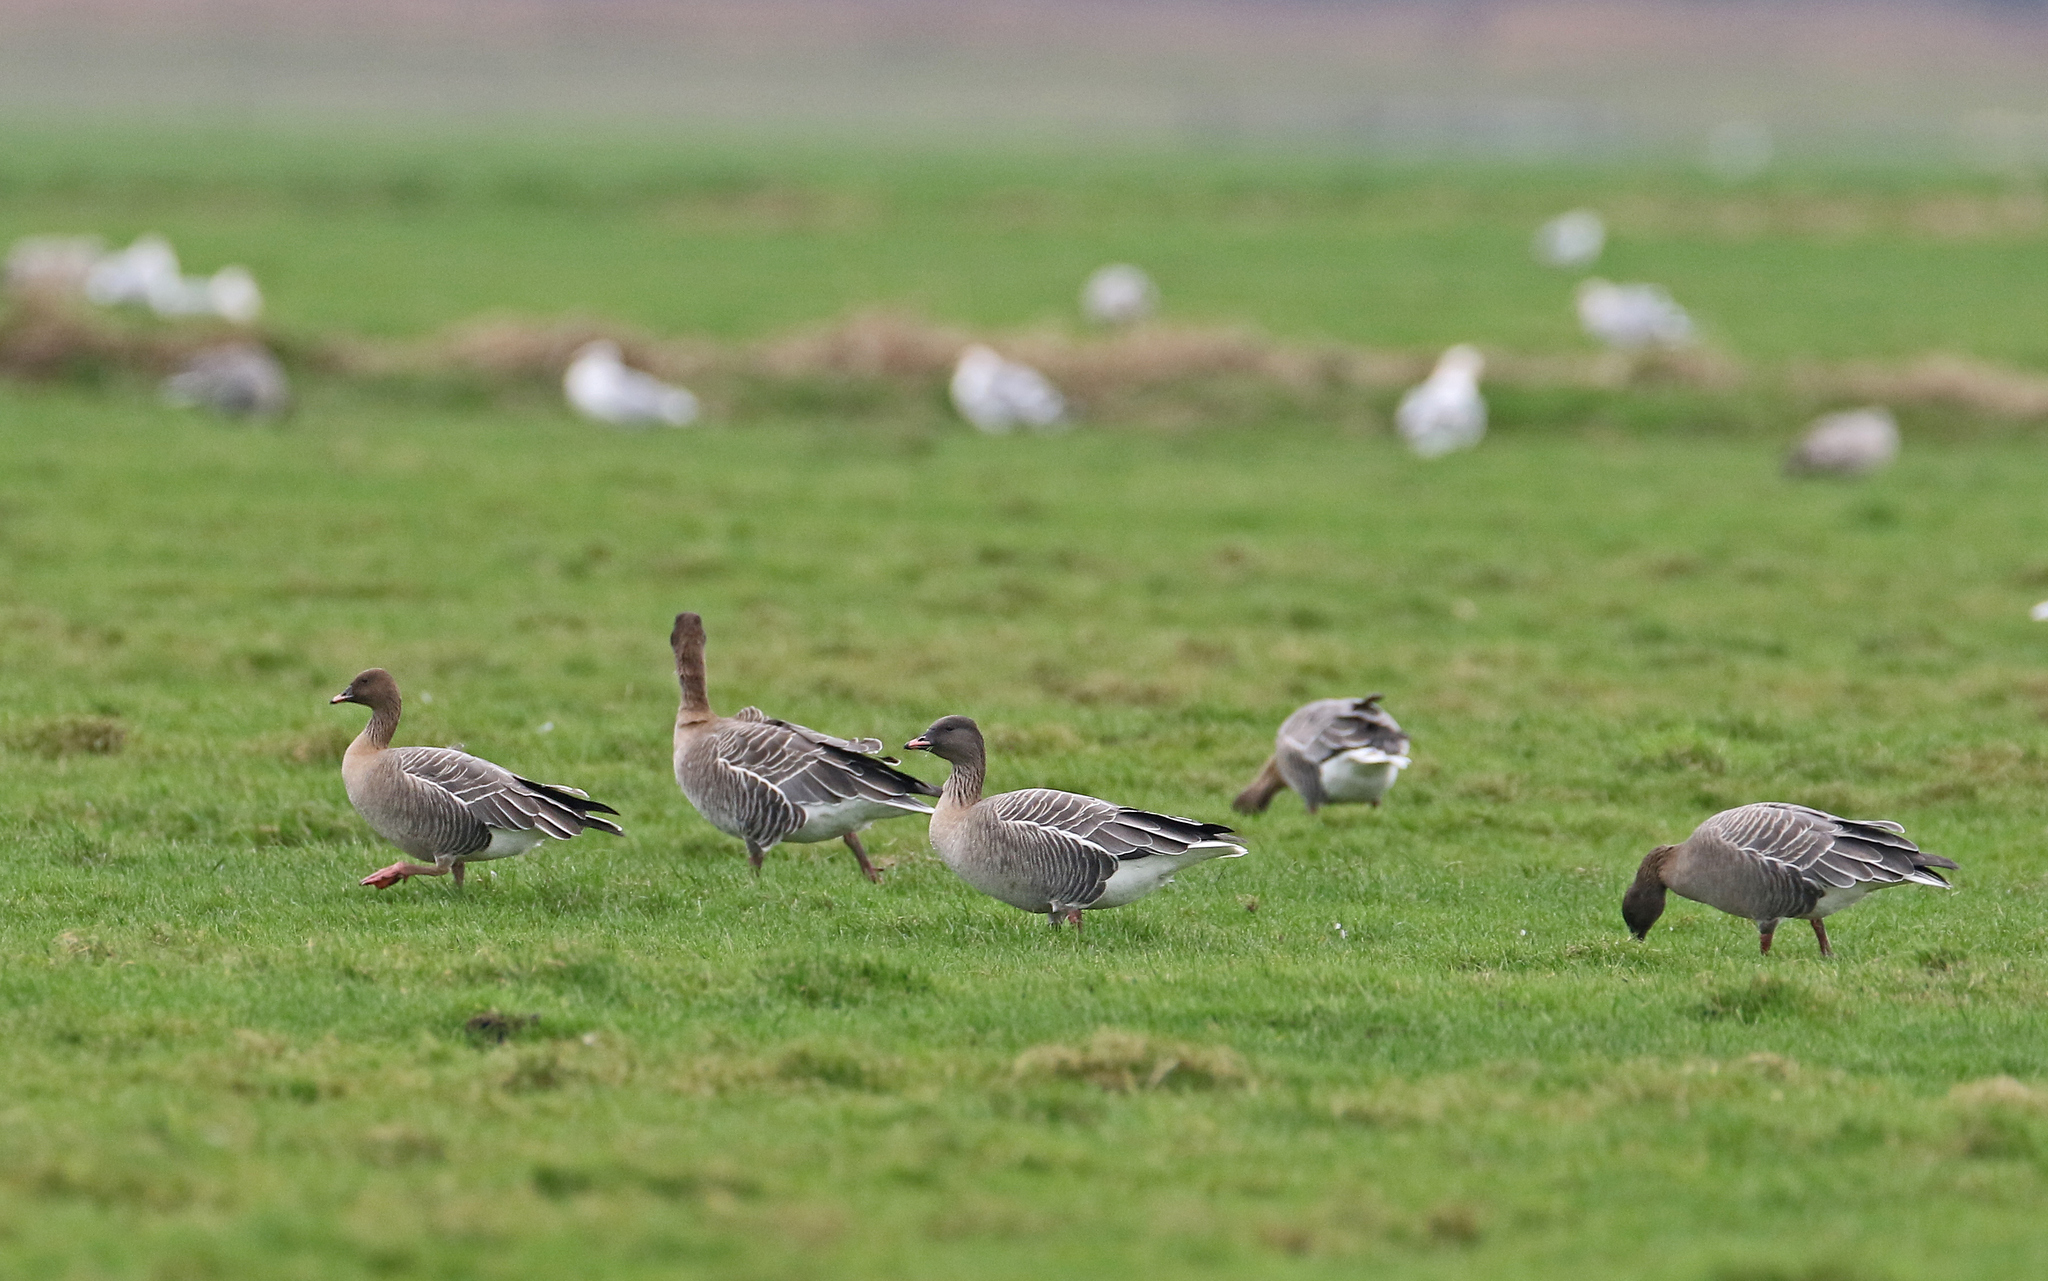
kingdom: Animalia
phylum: Chordata
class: Aves
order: Anseriformes
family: Anatidae
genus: Anser
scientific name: Anser brachyrhynchus
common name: Pink-footed goose
